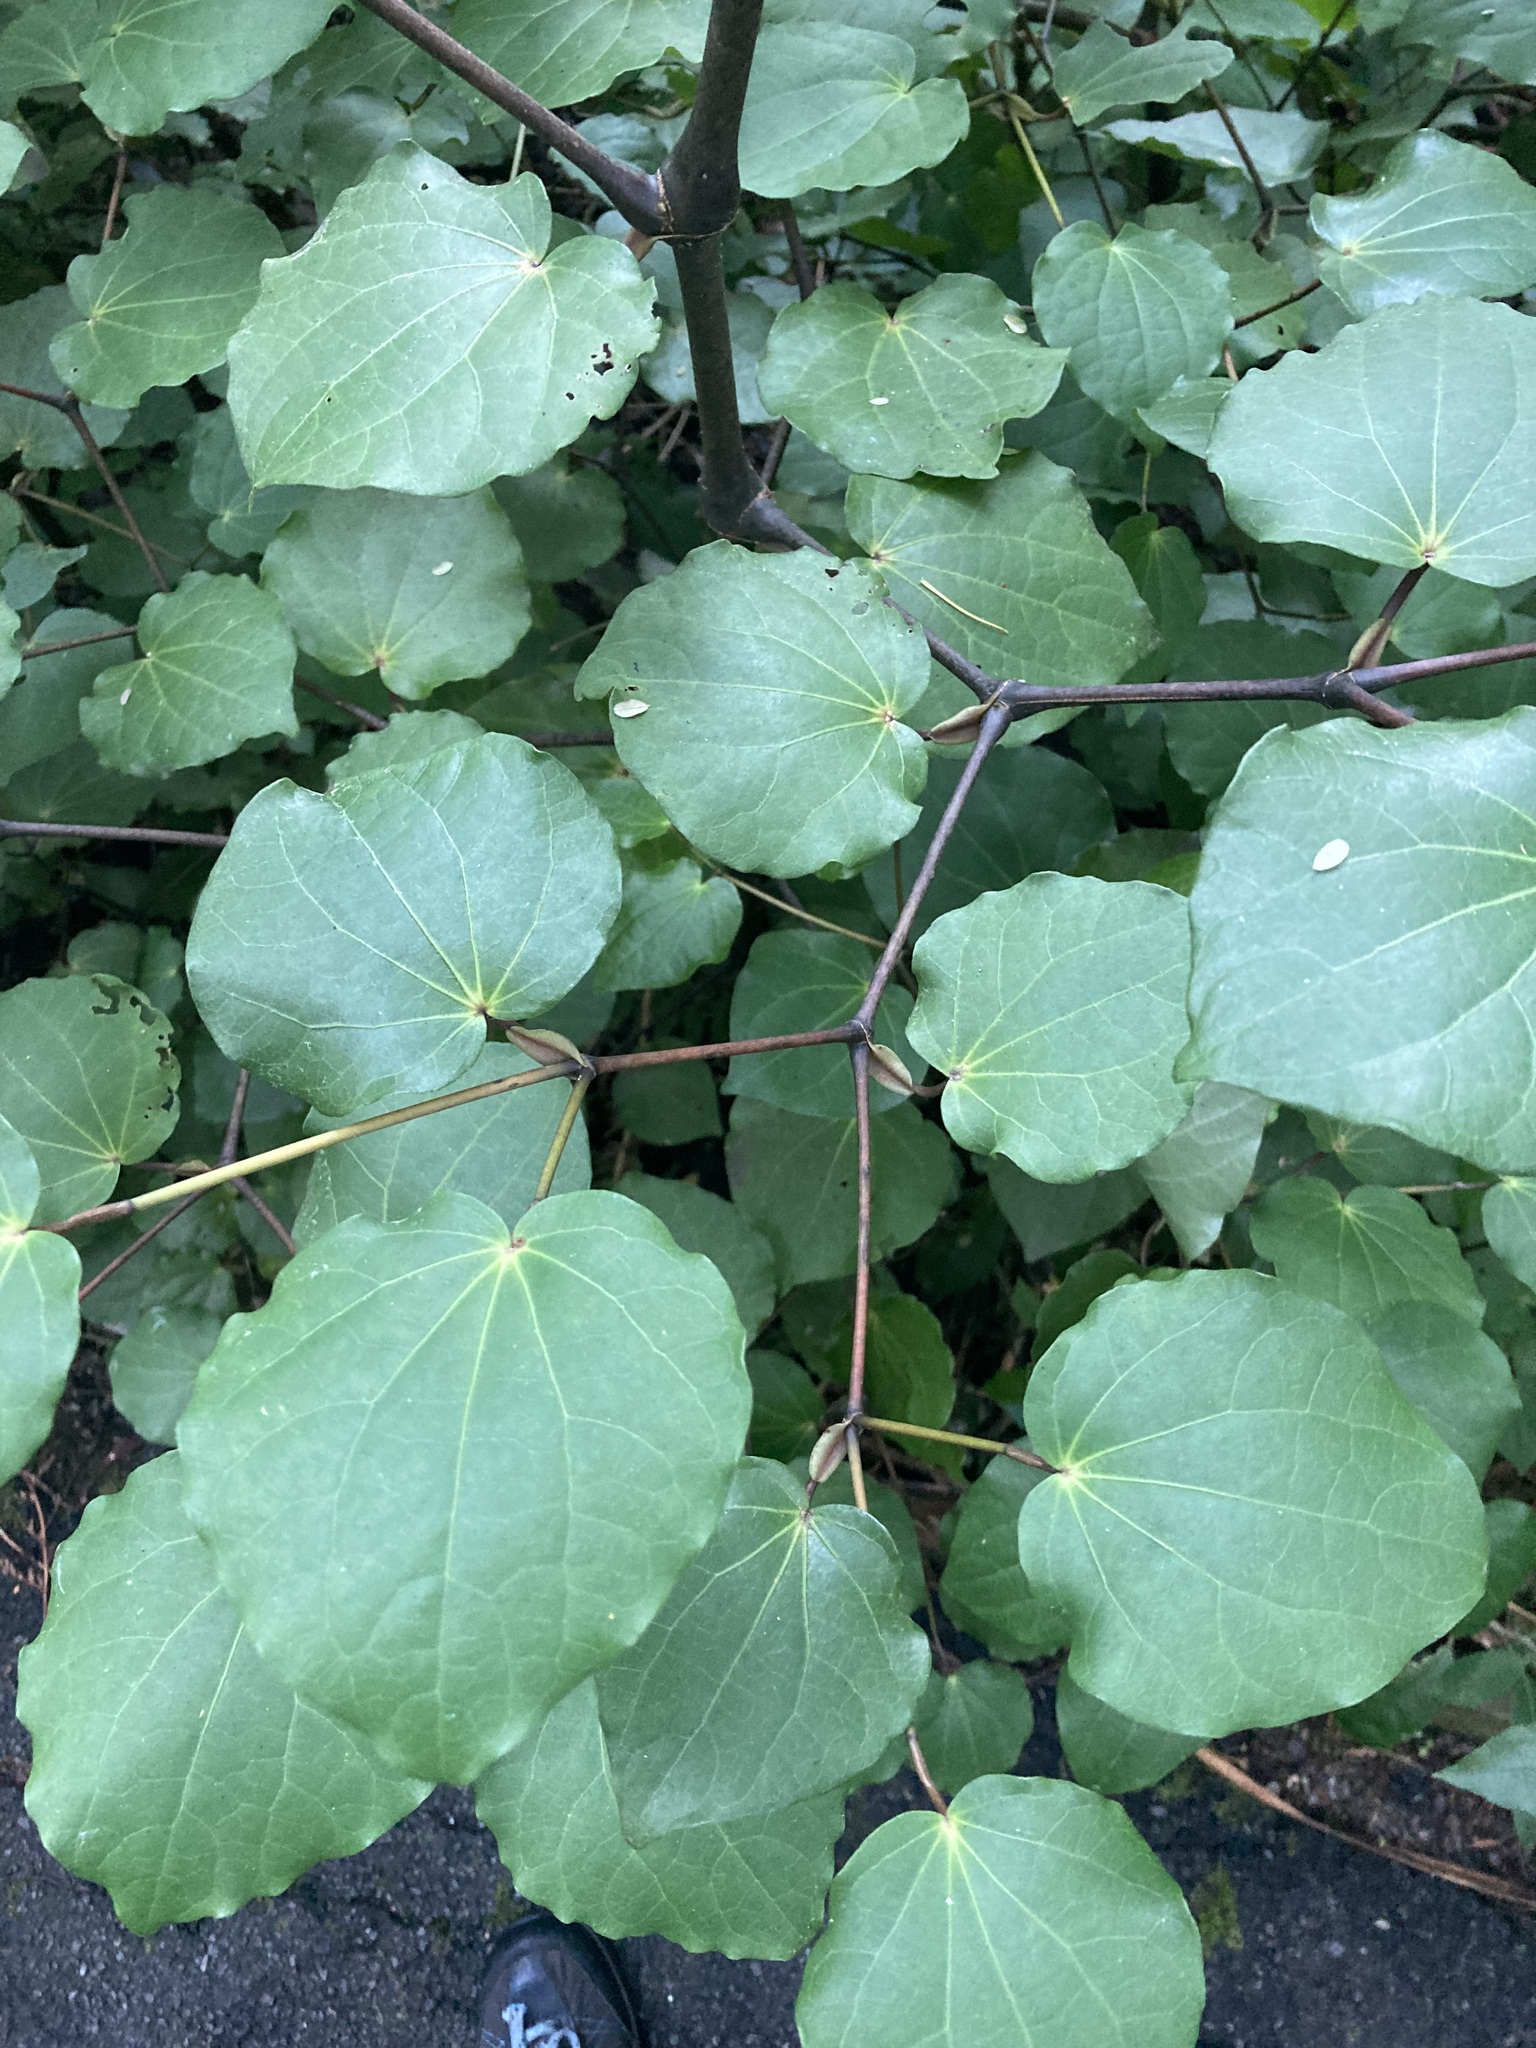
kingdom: Plantae
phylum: Tracheophyta
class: Magnoliopsida
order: Piperales
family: Piperaceae
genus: Macropiper
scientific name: Macropiper excelsum
